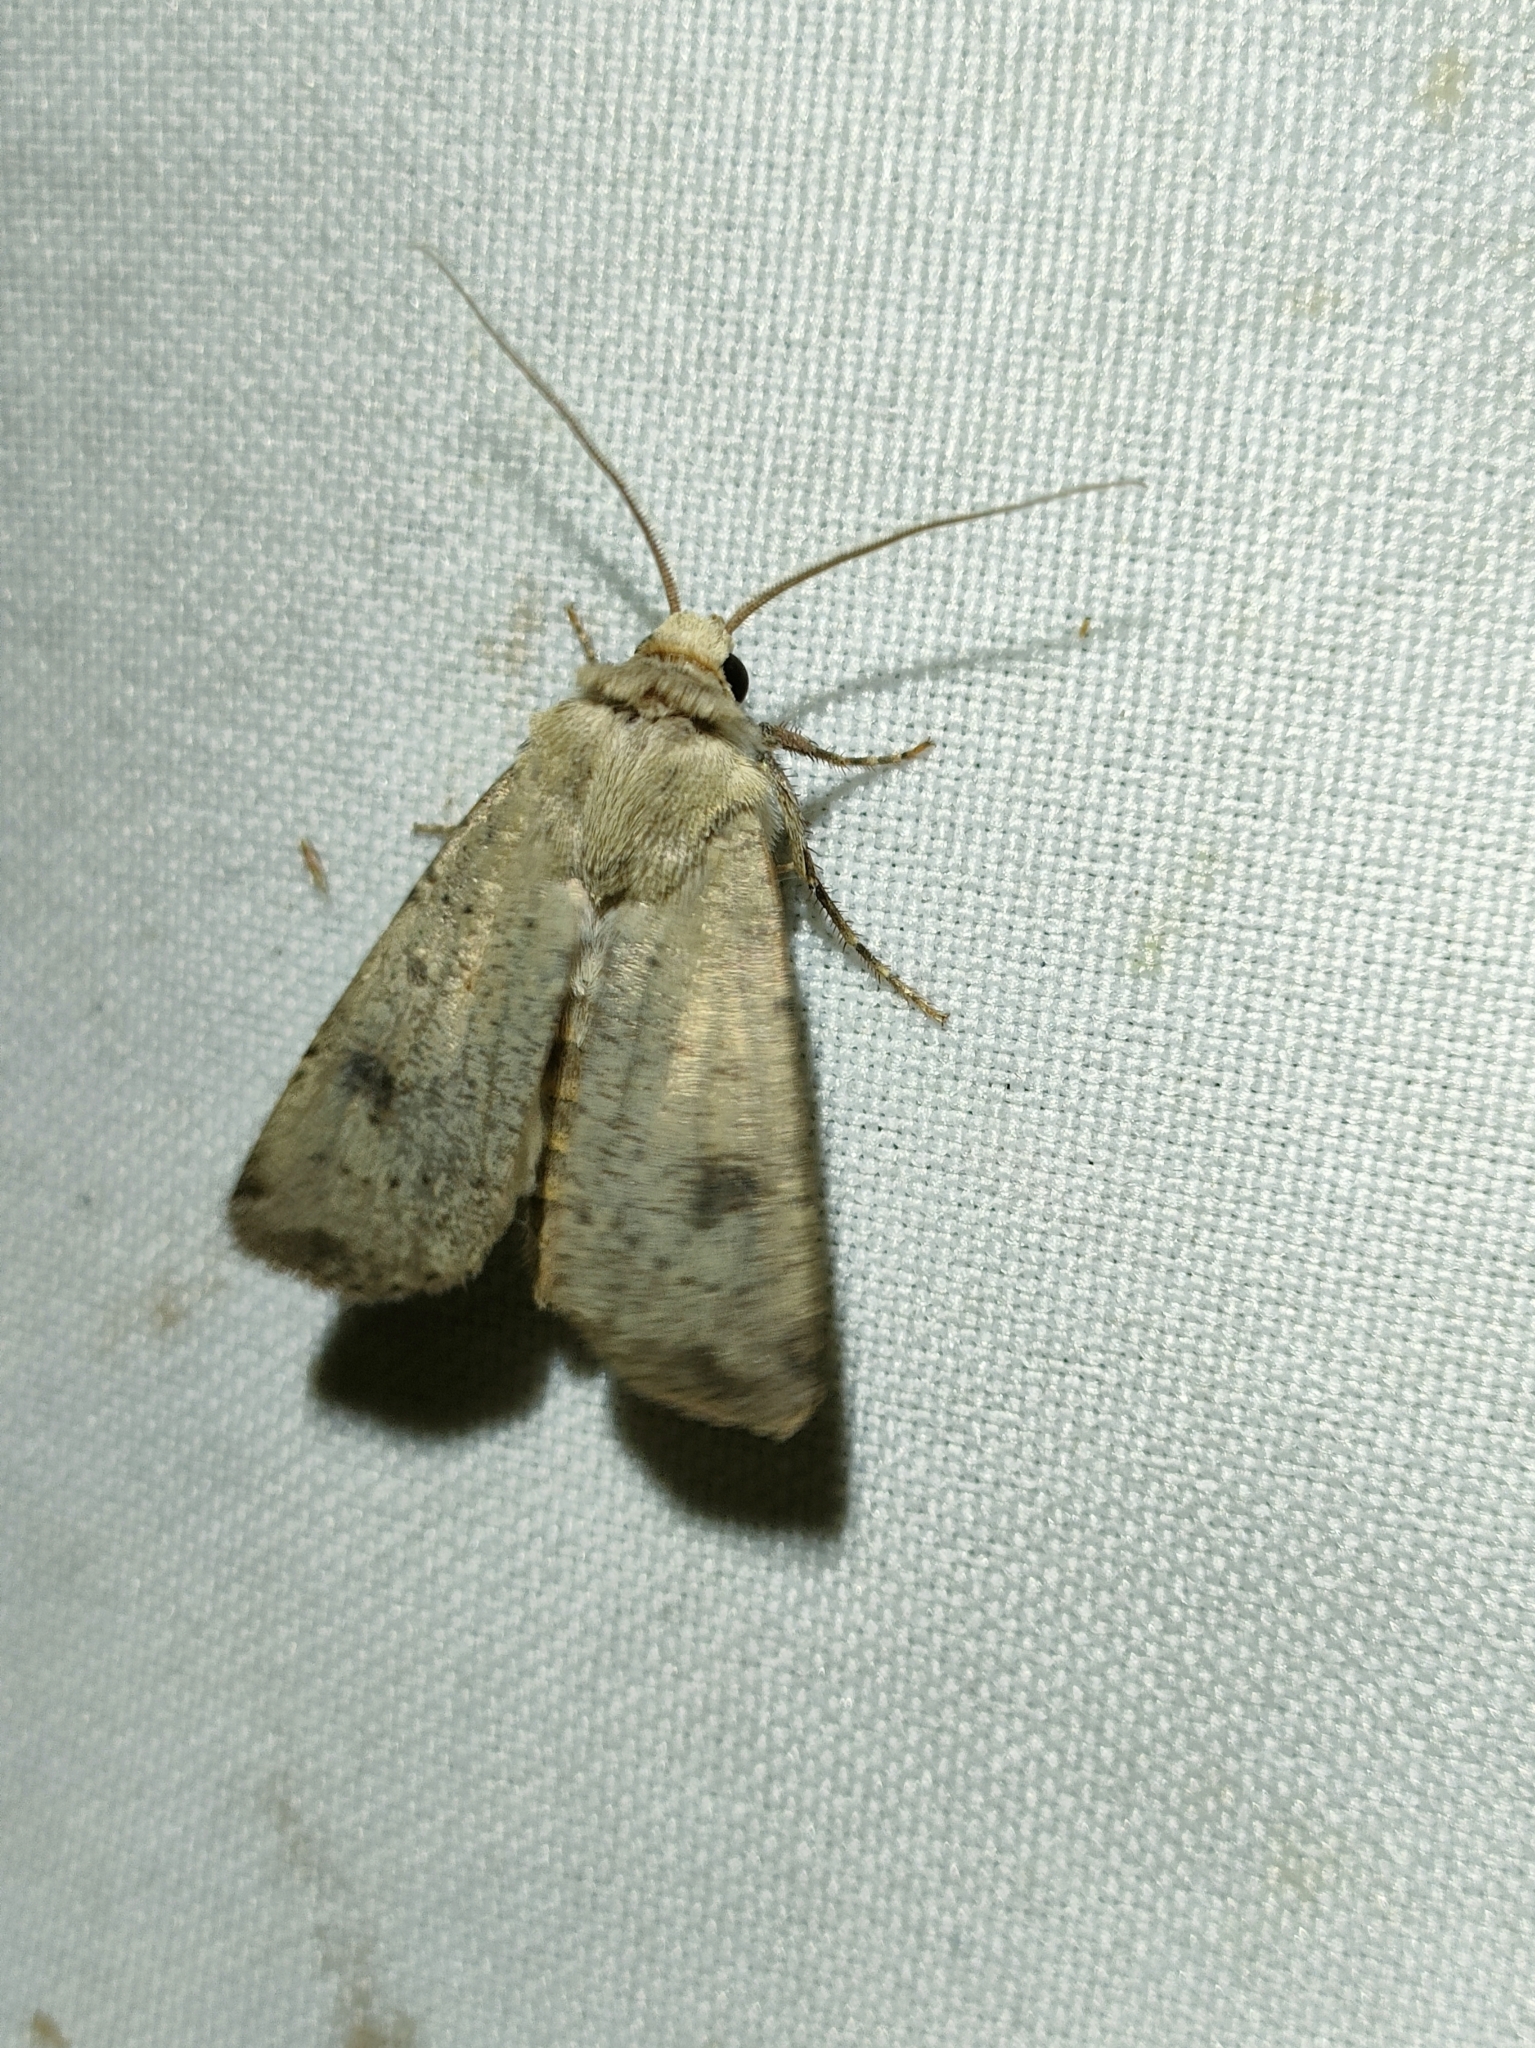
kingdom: Animalia
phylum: Arthropoda
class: Insecta
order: Lepidoptera
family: Noctuidae
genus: Agrotis
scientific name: Agrotis trux
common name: Crescent dart
